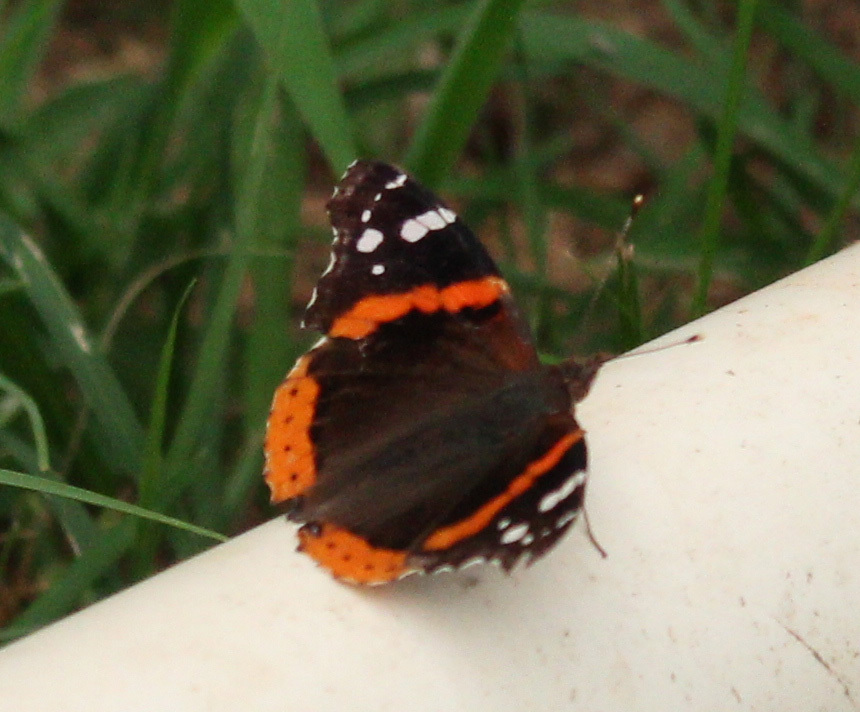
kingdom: Animalia
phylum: Arthropoda
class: Insecta
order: Lepidoptera
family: Nymphalidae
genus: Vanessa
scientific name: Vanessa atalanta
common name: Red admiral
